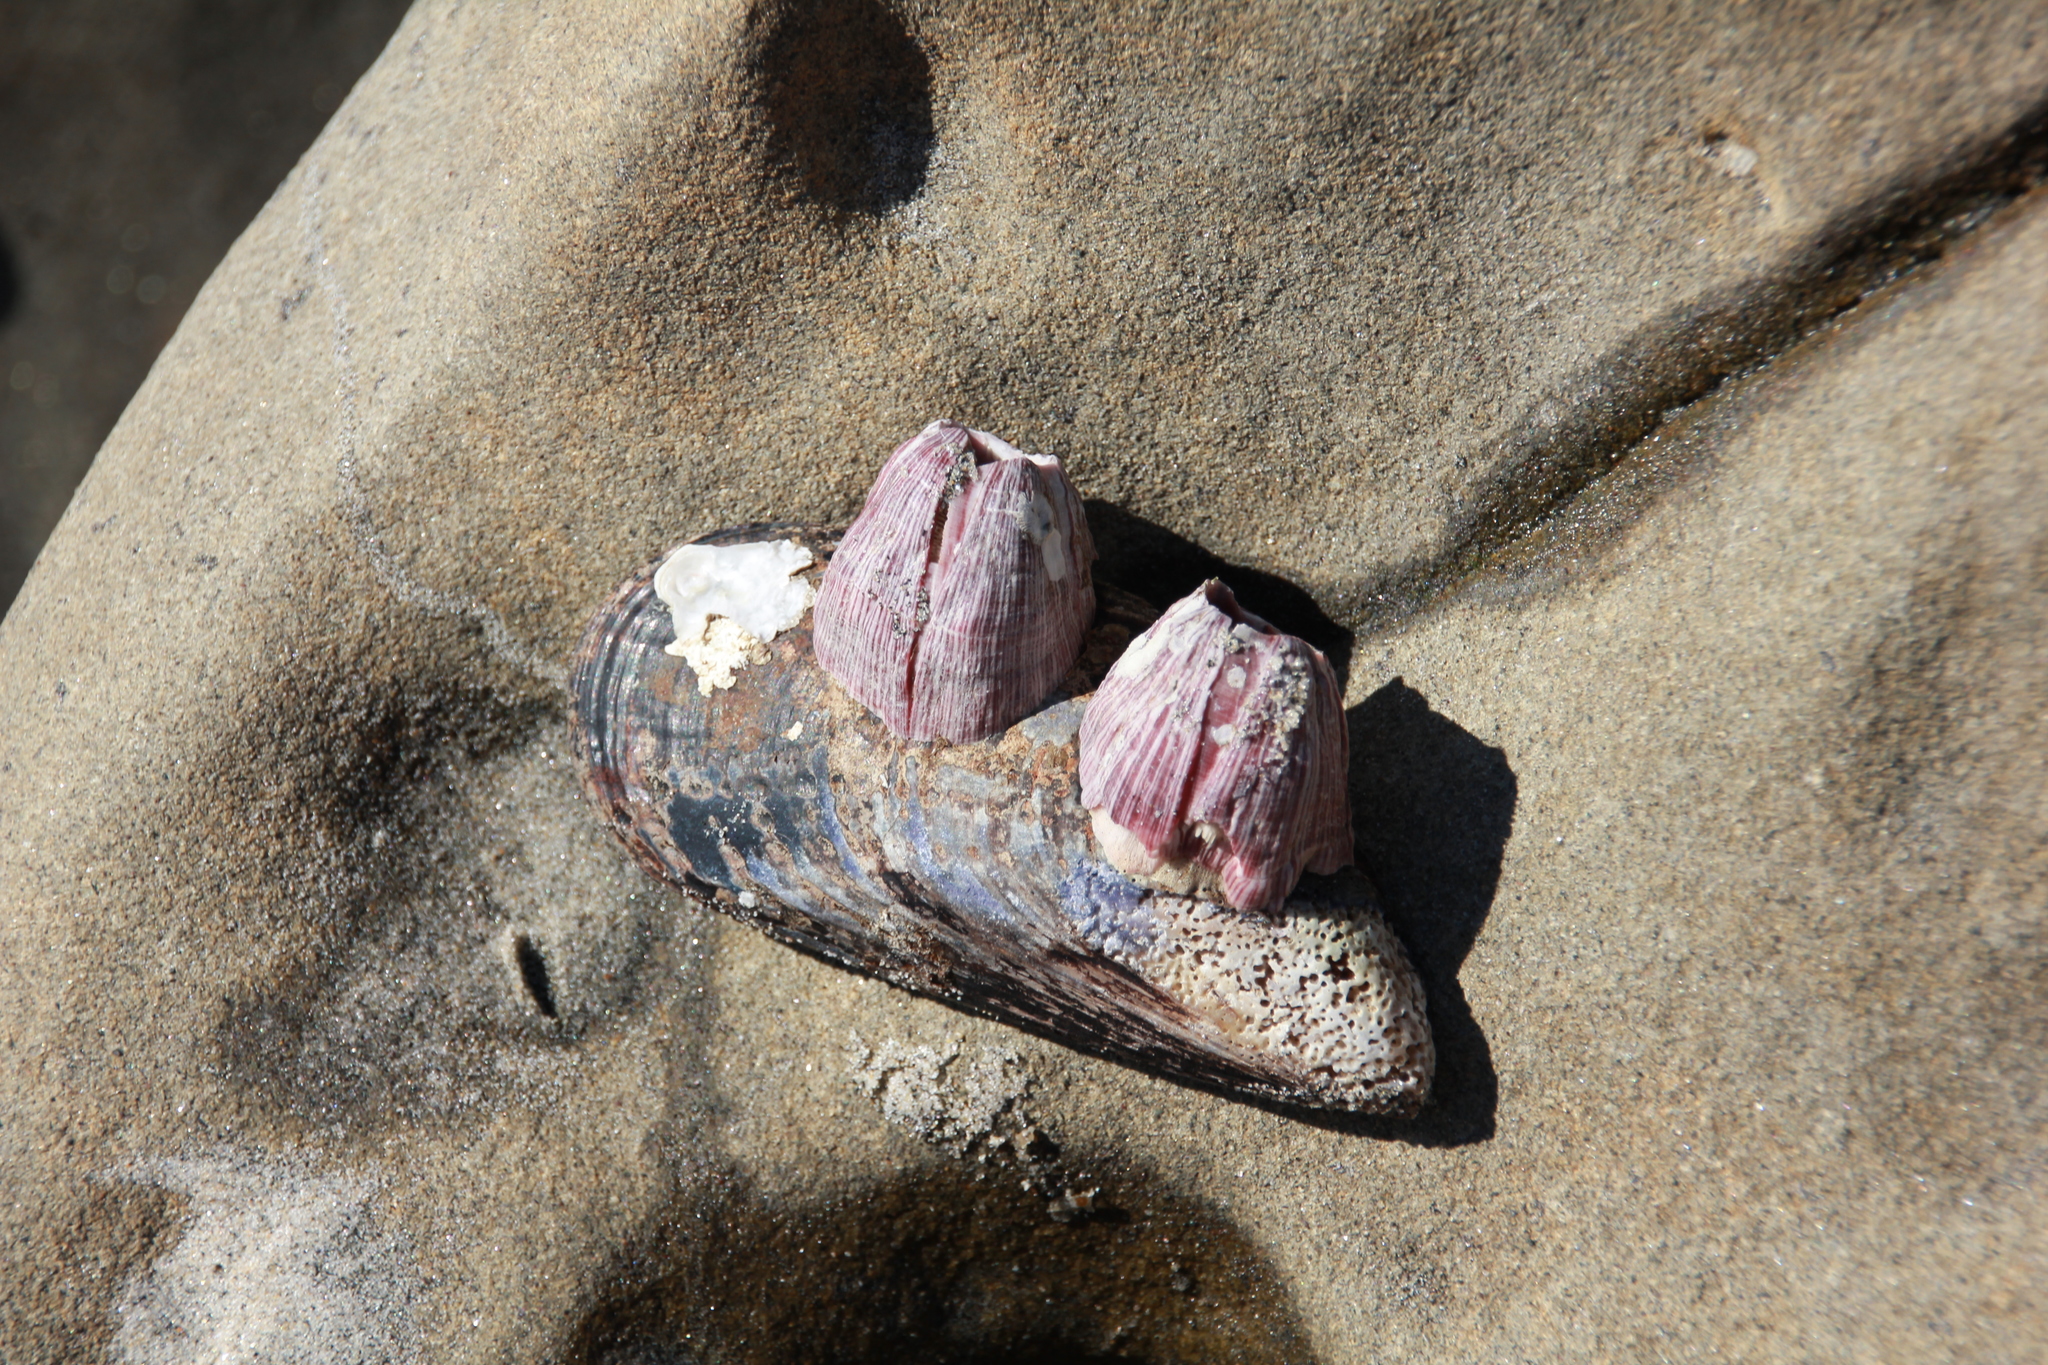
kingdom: Animalia
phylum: Arthropoda
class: Maxillopoda
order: Sessilia
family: Balanidae
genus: Megabalanus
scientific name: Megabalanus californicus
